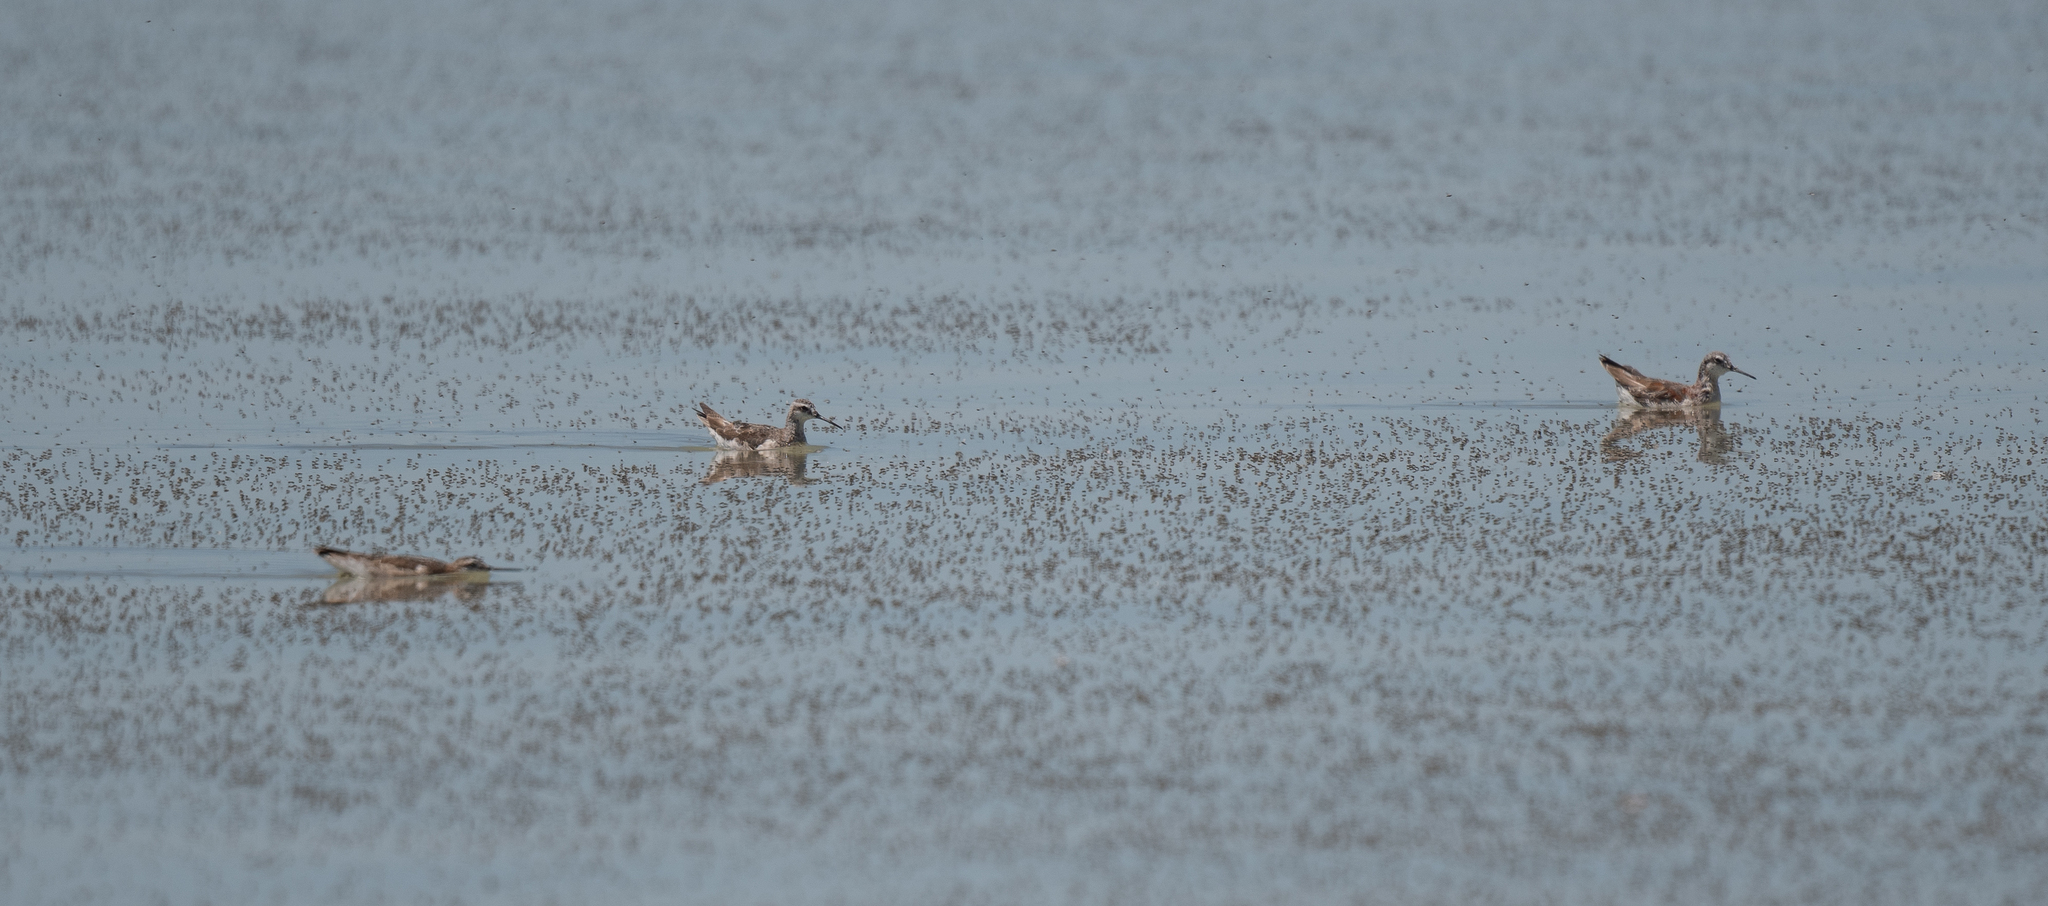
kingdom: Animalia
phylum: Chordata
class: Aves
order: Charadriiformes
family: Scolopacidae
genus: Phalaropus
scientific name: Phalaropus tricolor
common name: Wilson's phalarope
